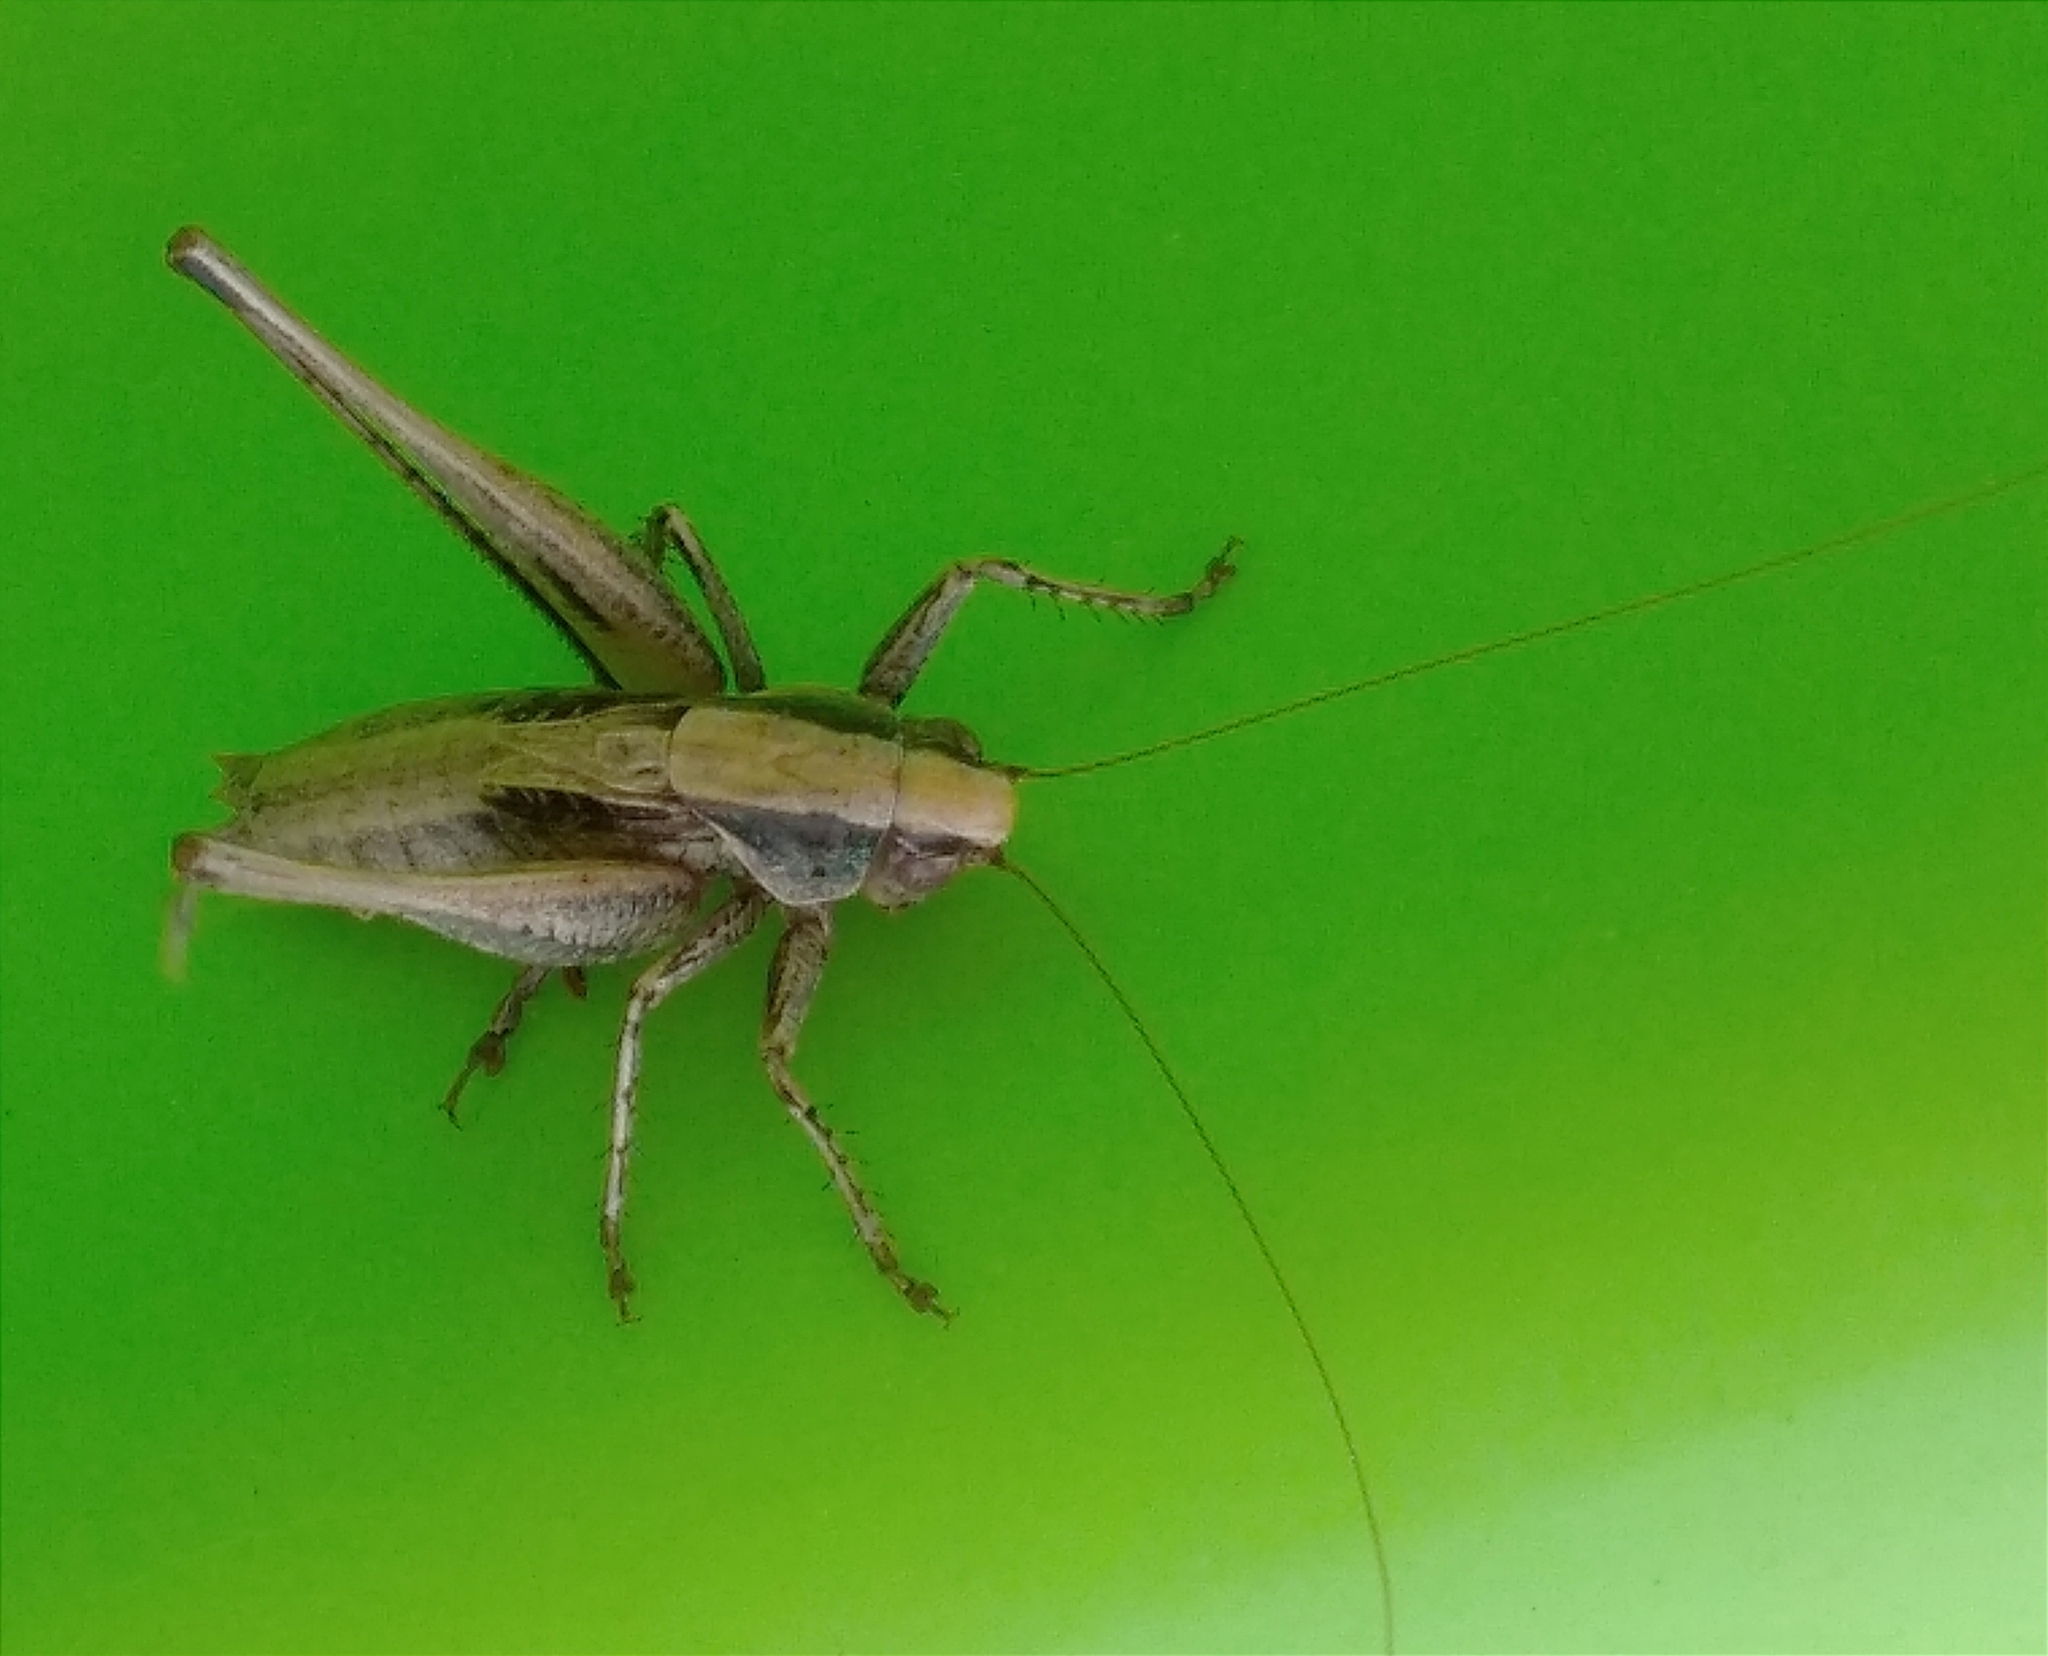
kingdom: Animalia
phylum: Arthropoda
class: Insecta
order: Orthoptera
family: Tettigoniidae
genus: Incertana
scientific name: Incertana incerta
